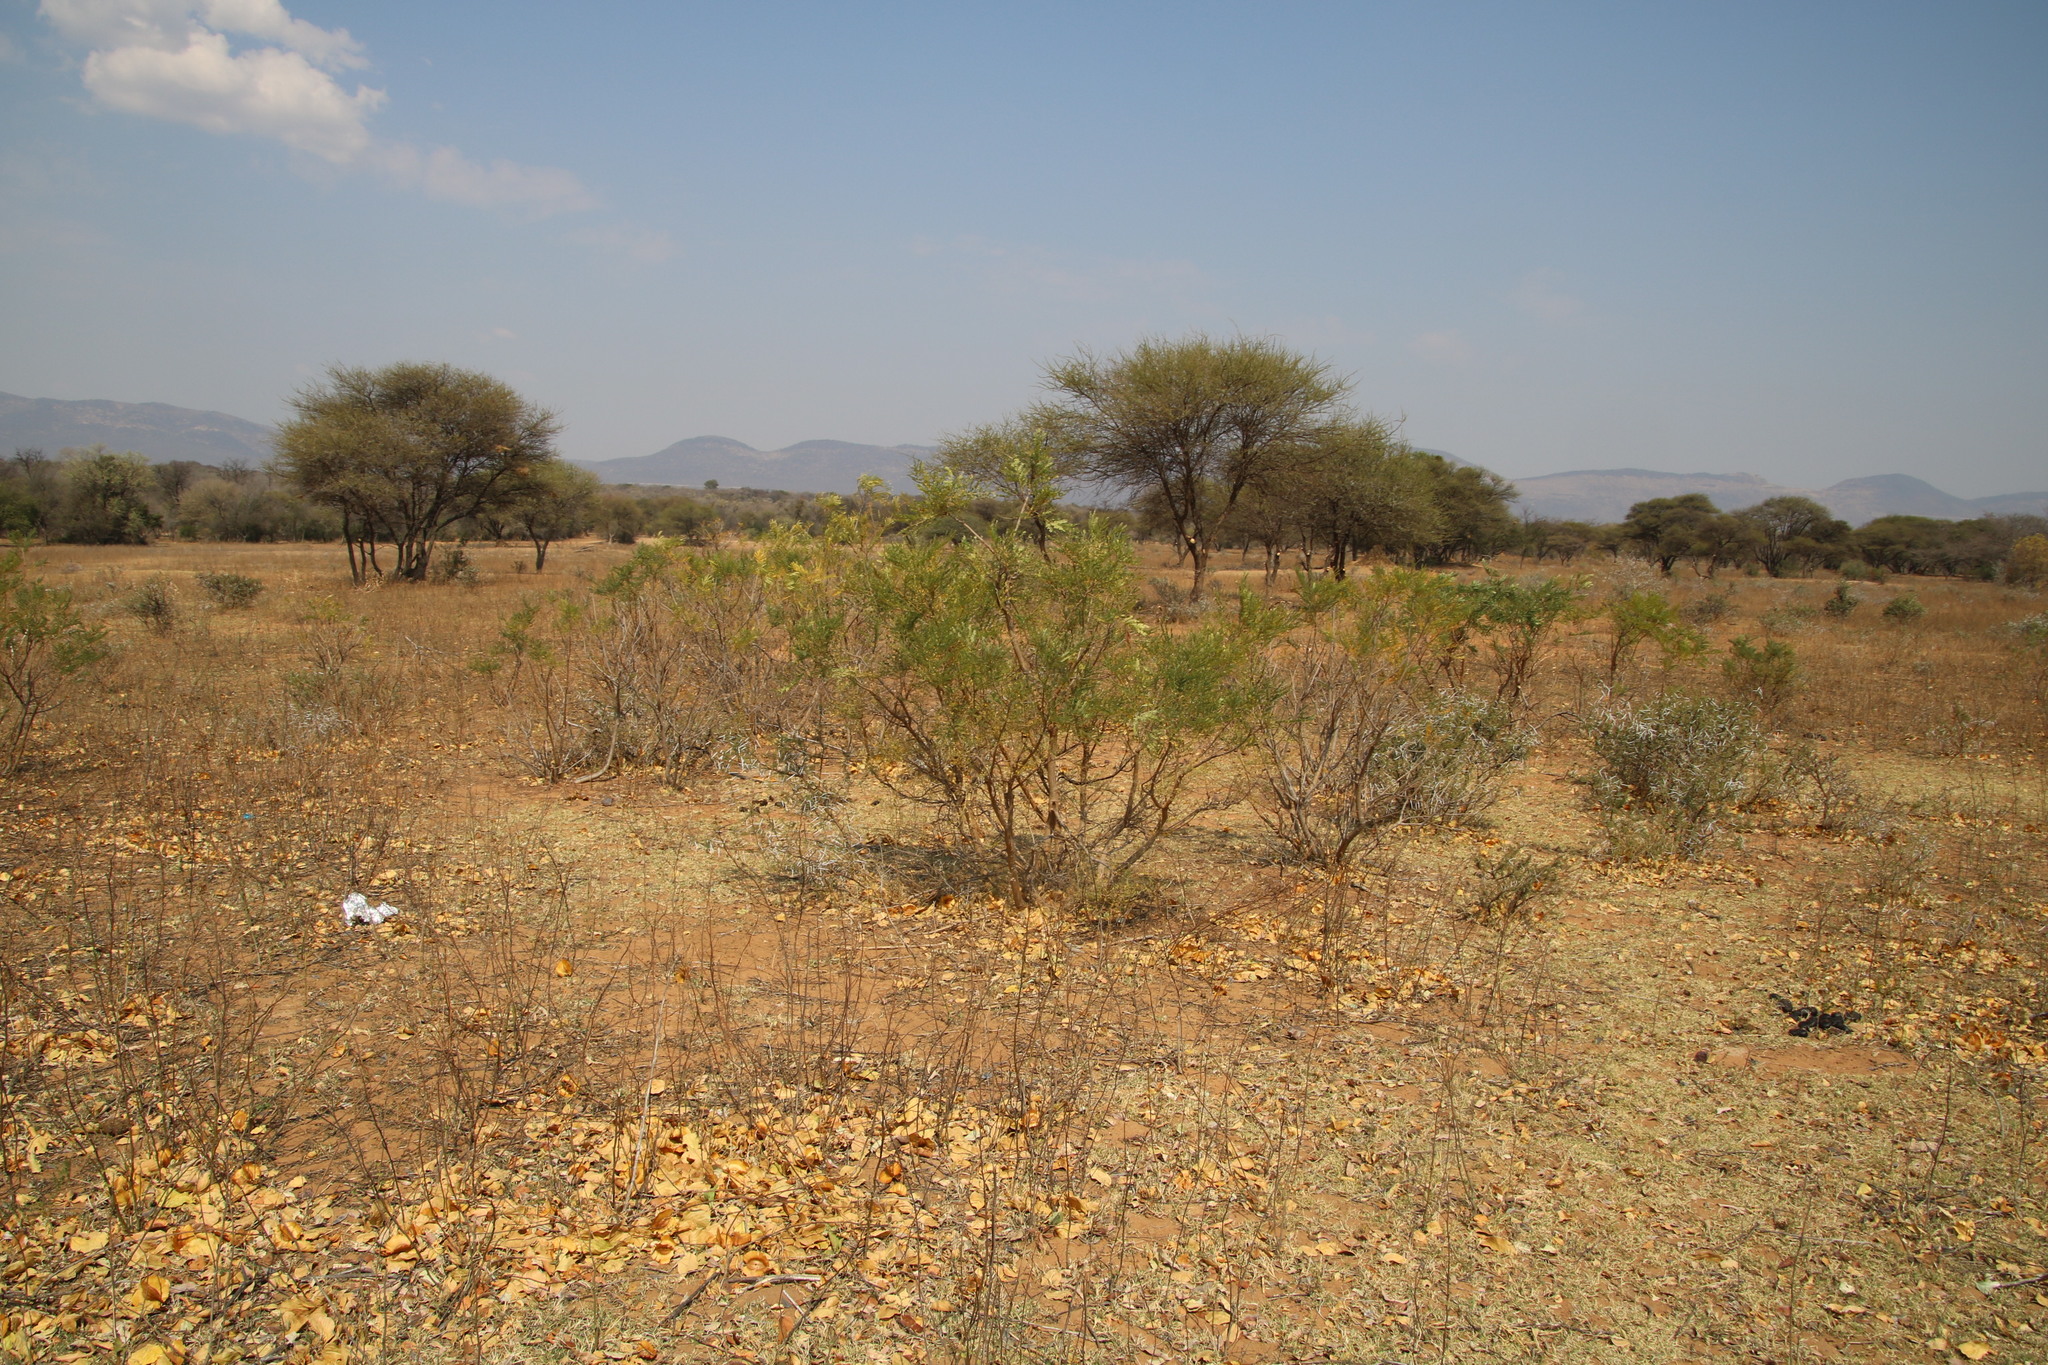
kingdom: Plantae
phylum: Tracheophyta
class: Magnoliopsida
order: Fabales
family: Fabaceae
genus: Peltophorum
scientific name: Peltophorum africanum
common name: African black wattle
